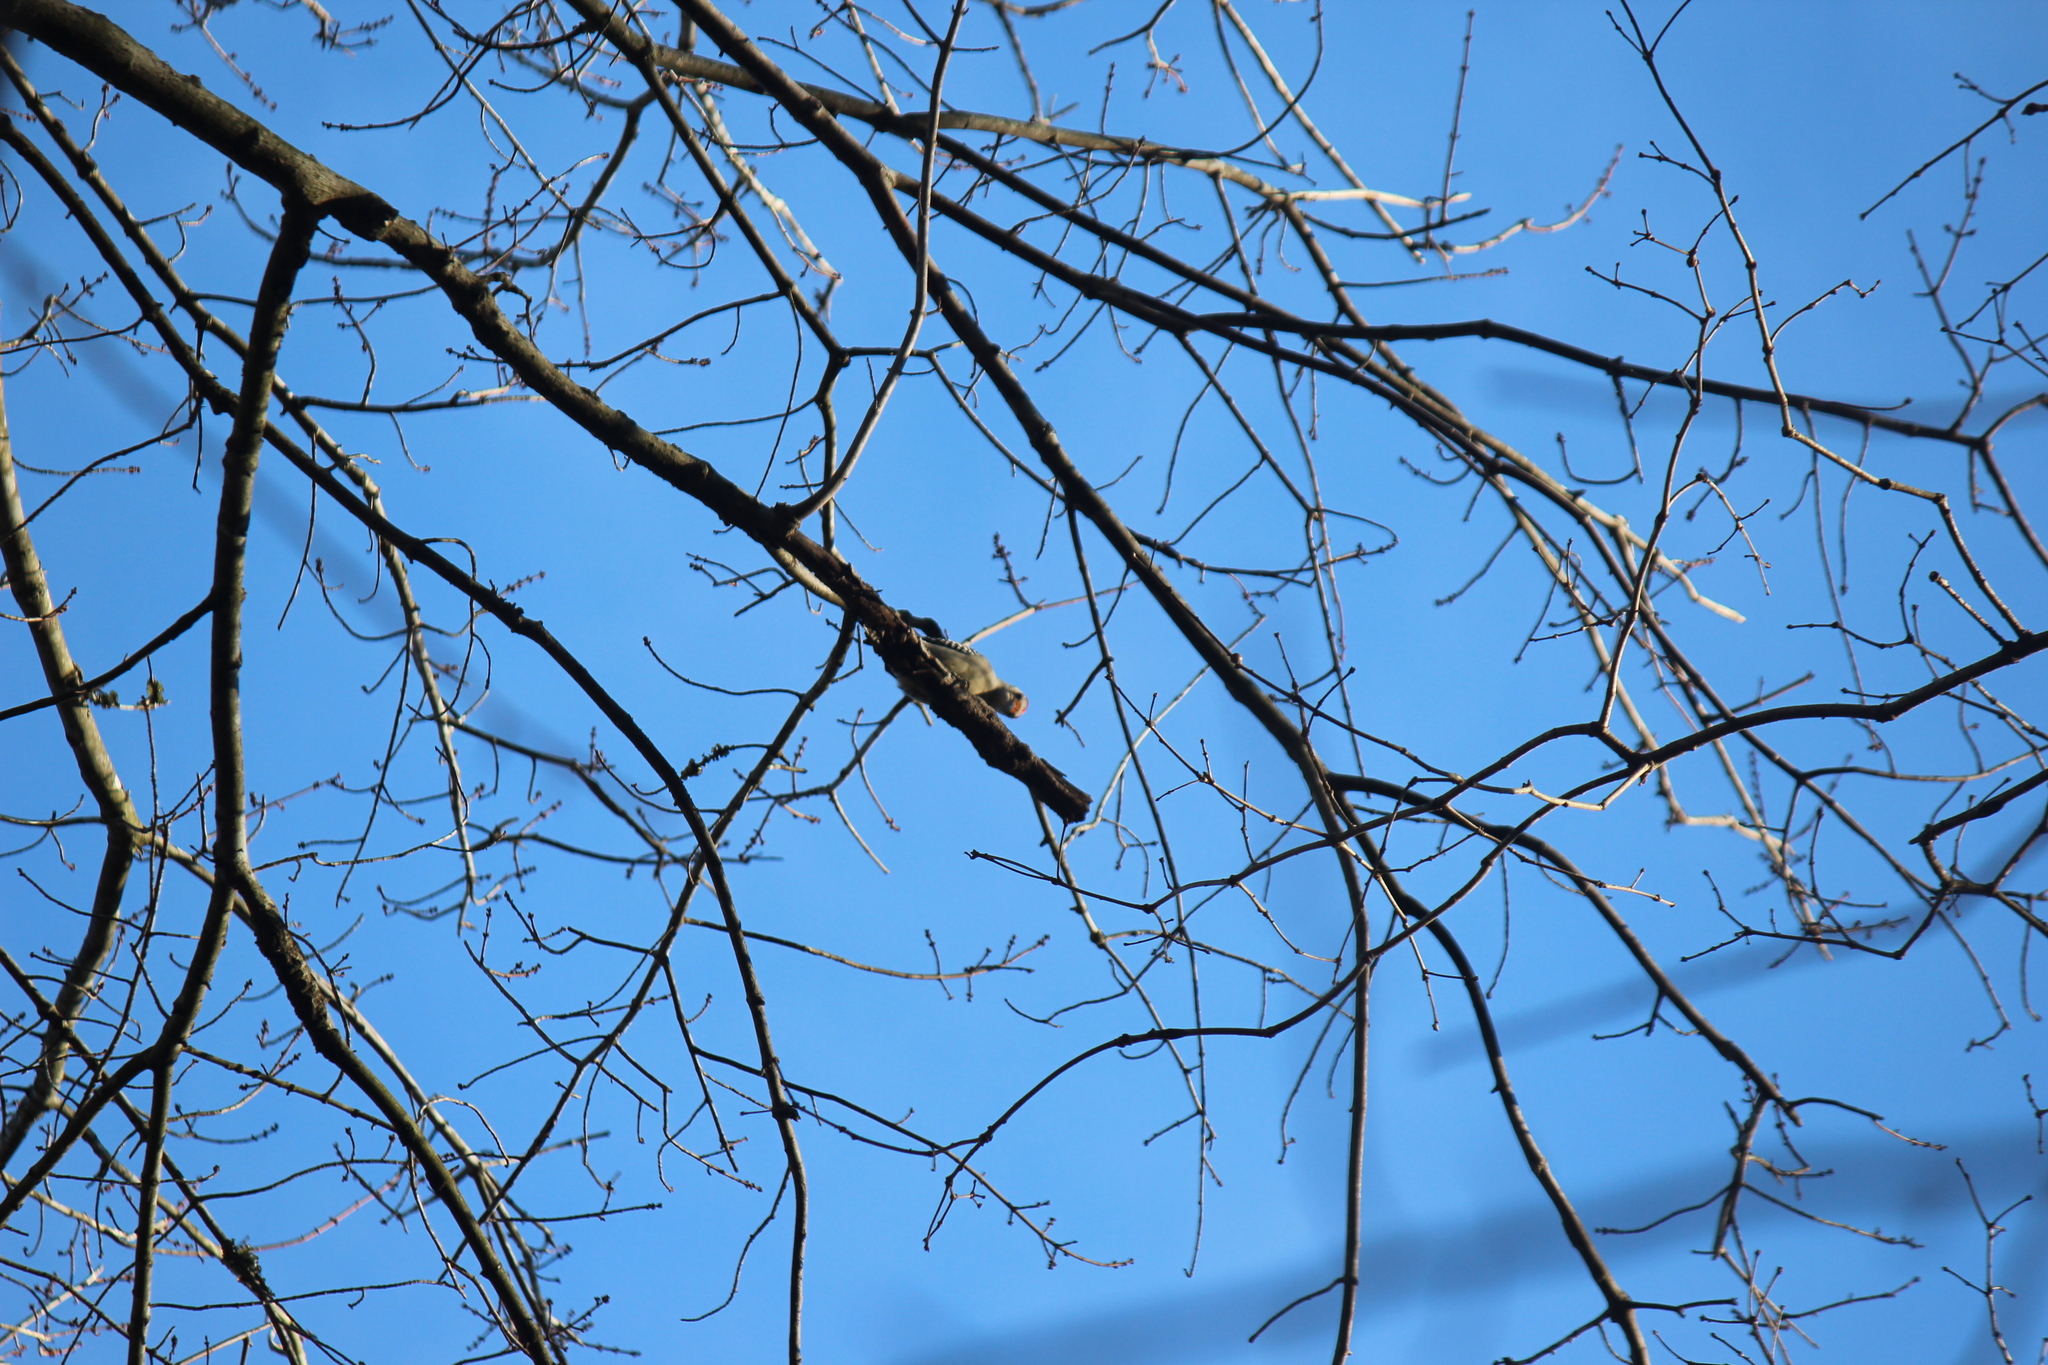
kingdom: Animalia
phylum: Chordata
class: Aves
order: Piciformes
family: Picidae
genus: Melanerpes
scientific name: Melanerpes carolinus
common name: Red-bellied woodpecker
